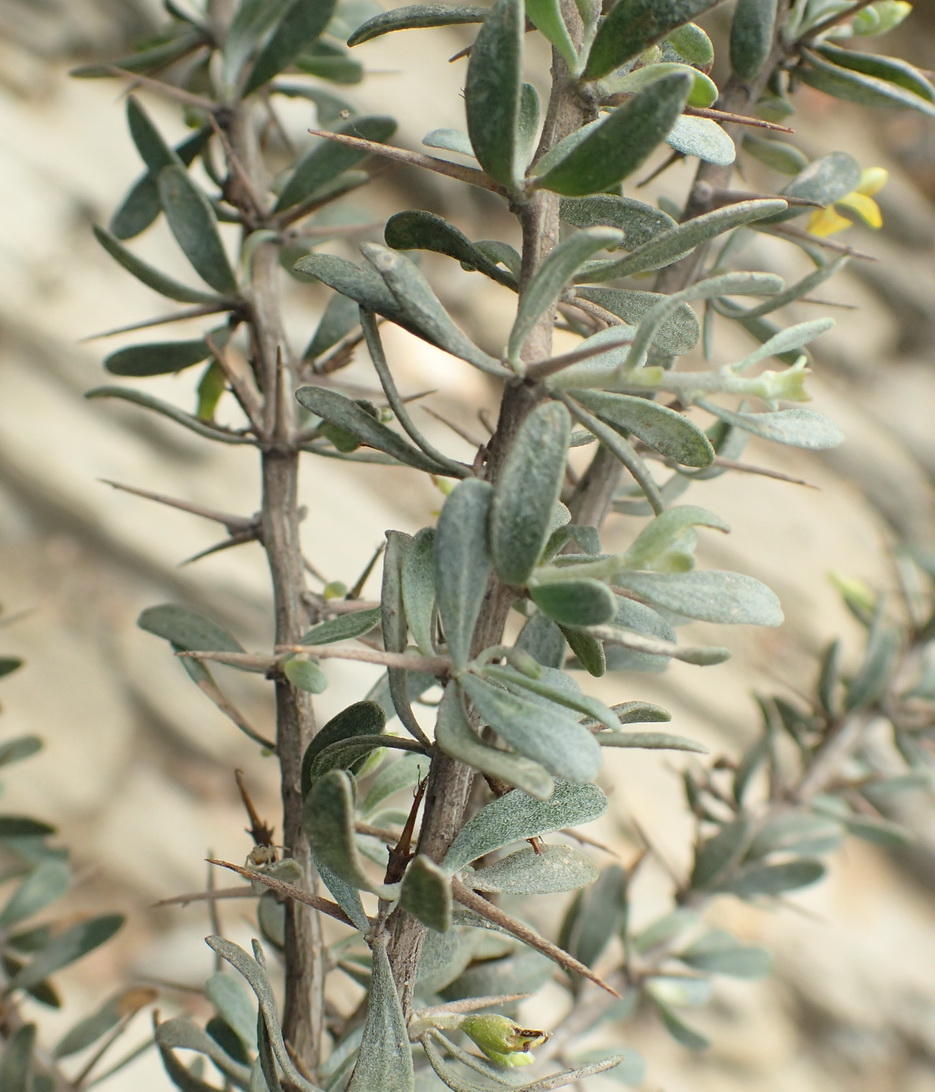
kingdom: Plantae
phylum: Tracheophyta
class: Magnoliopsida
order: Fabales
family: Fabaceae
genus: Aspalathus
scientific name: Aspalathus spinosa
